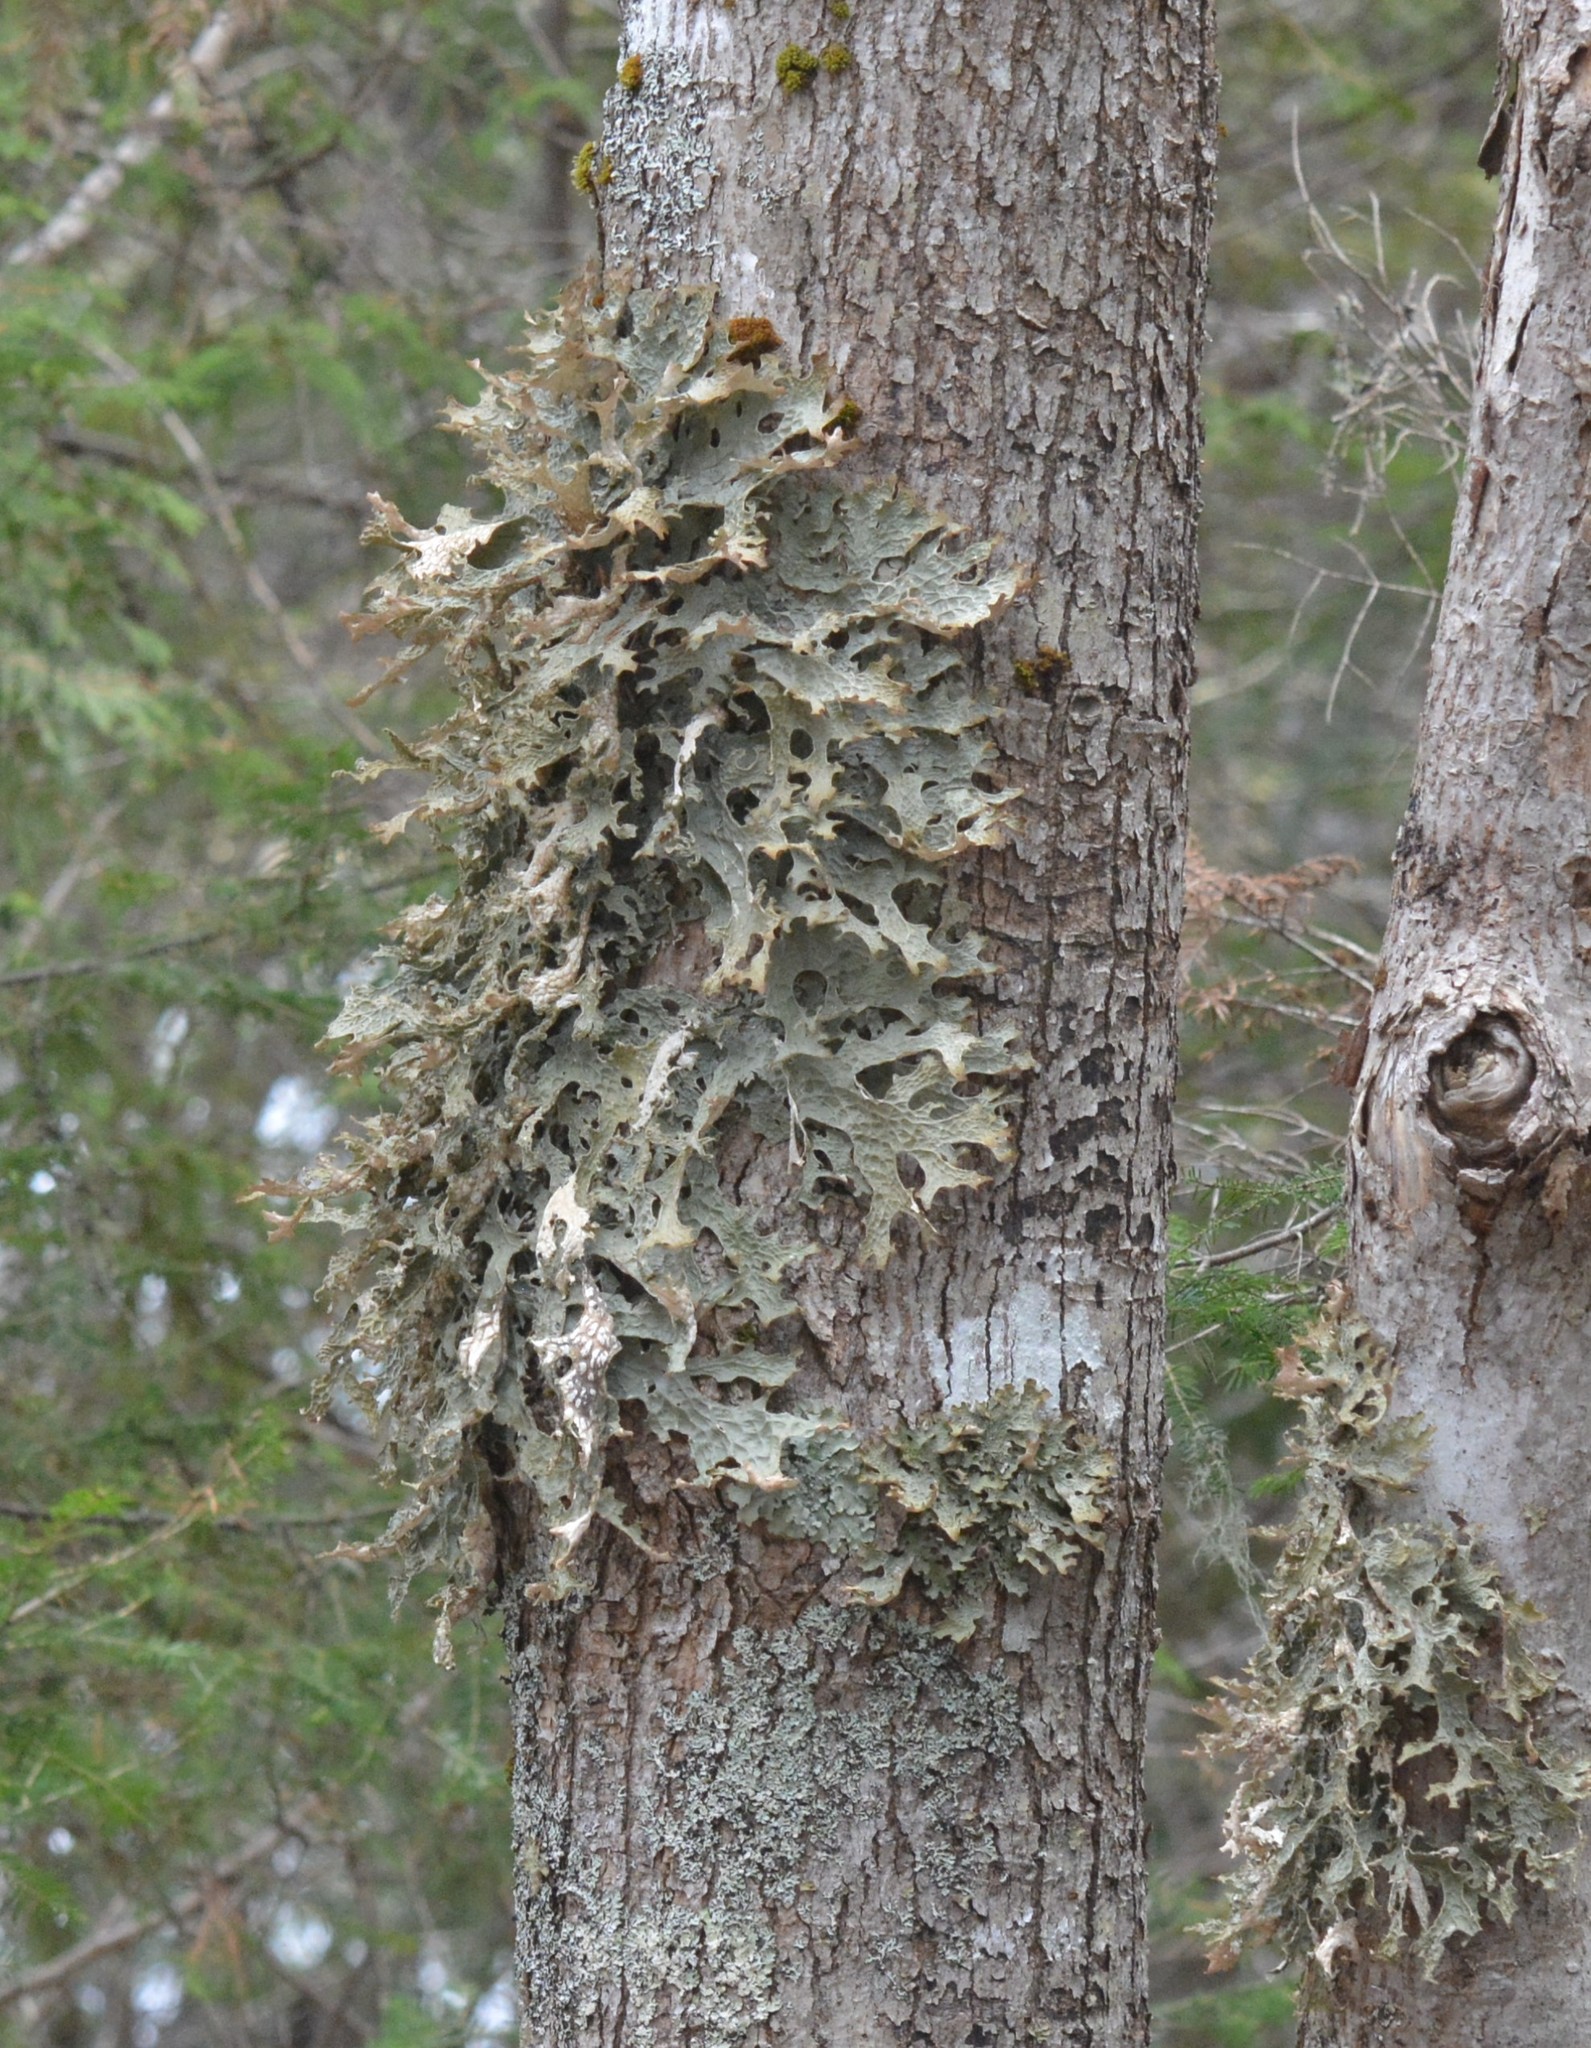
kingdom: Fungi
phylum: Ascomycota
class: Lecanoromycetes
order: Peltigerales
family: Lobariaceae
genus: Lobaria
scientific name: Lobaria pulmonaria
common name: Lungwort
